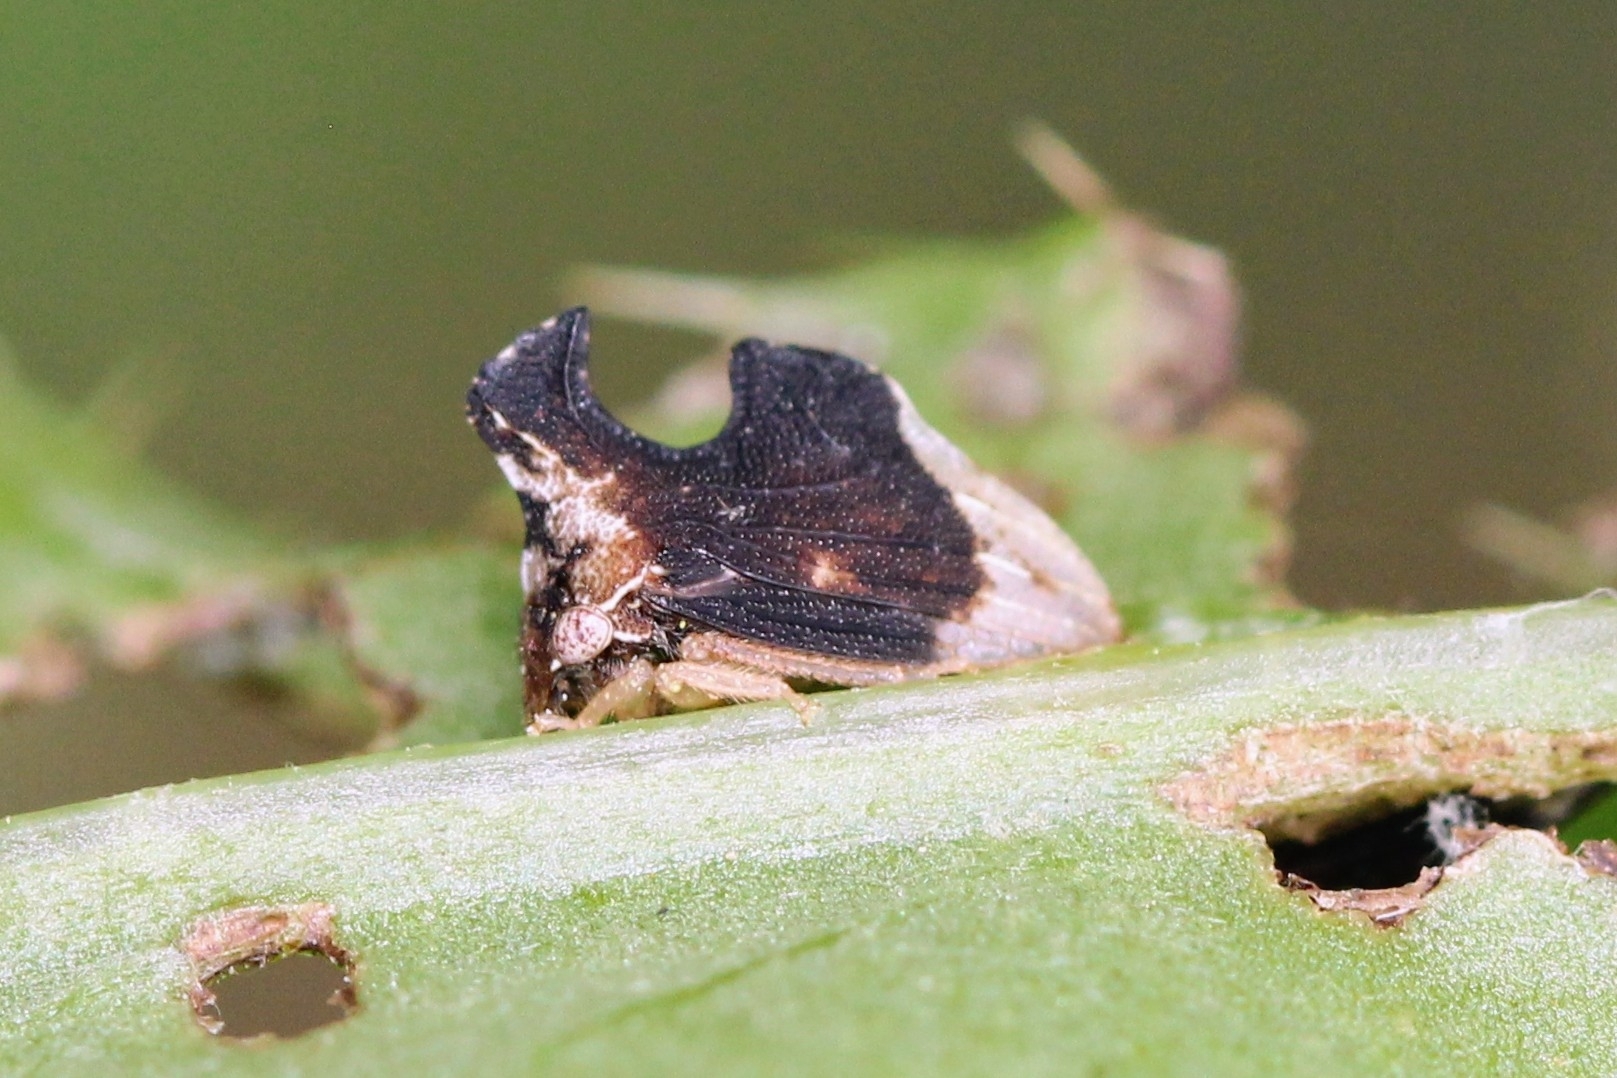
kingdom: Animalia
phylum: Arthropoda
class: Insecta
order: Hemiptera
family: Membracidae
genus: Entylia
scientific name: Entylia carinata
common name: Keeled treehopper
